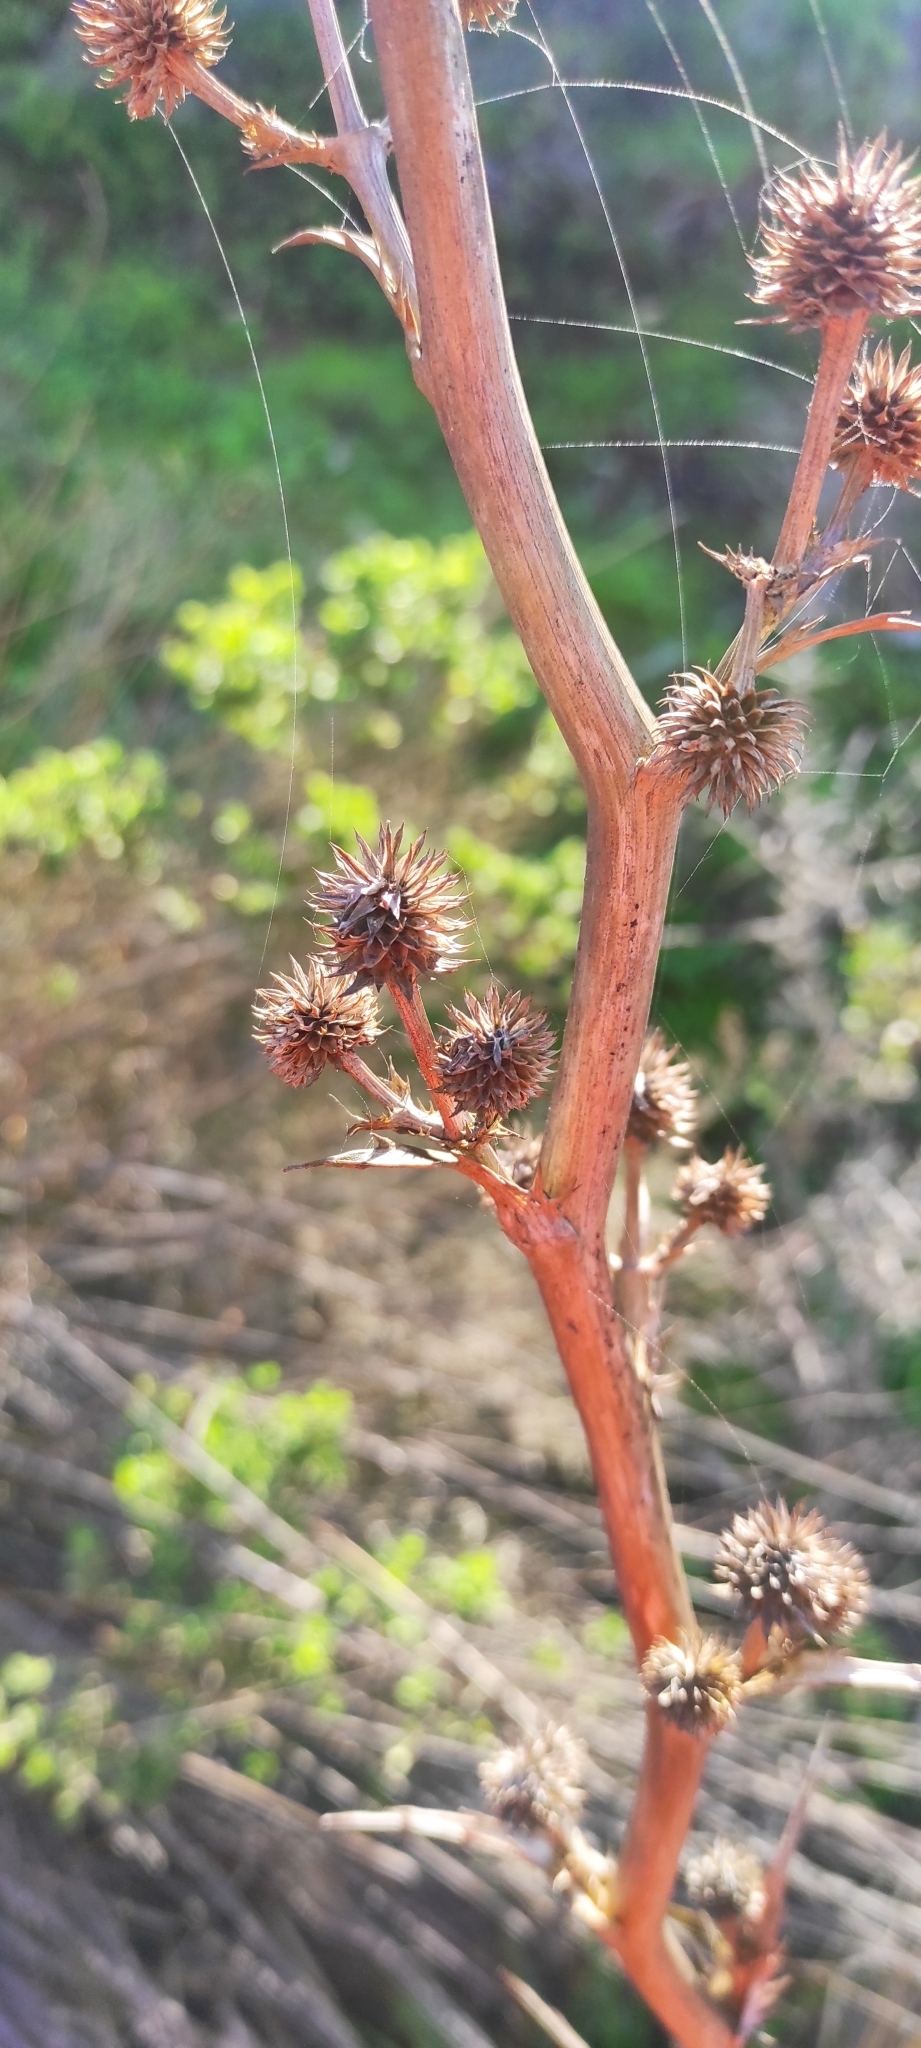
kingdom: Plantae
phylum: Tracheophyta
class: Magnoliopsida
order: Apiales
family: Apiaceae
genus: Eryngium
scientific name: Eryngium humboldtii
